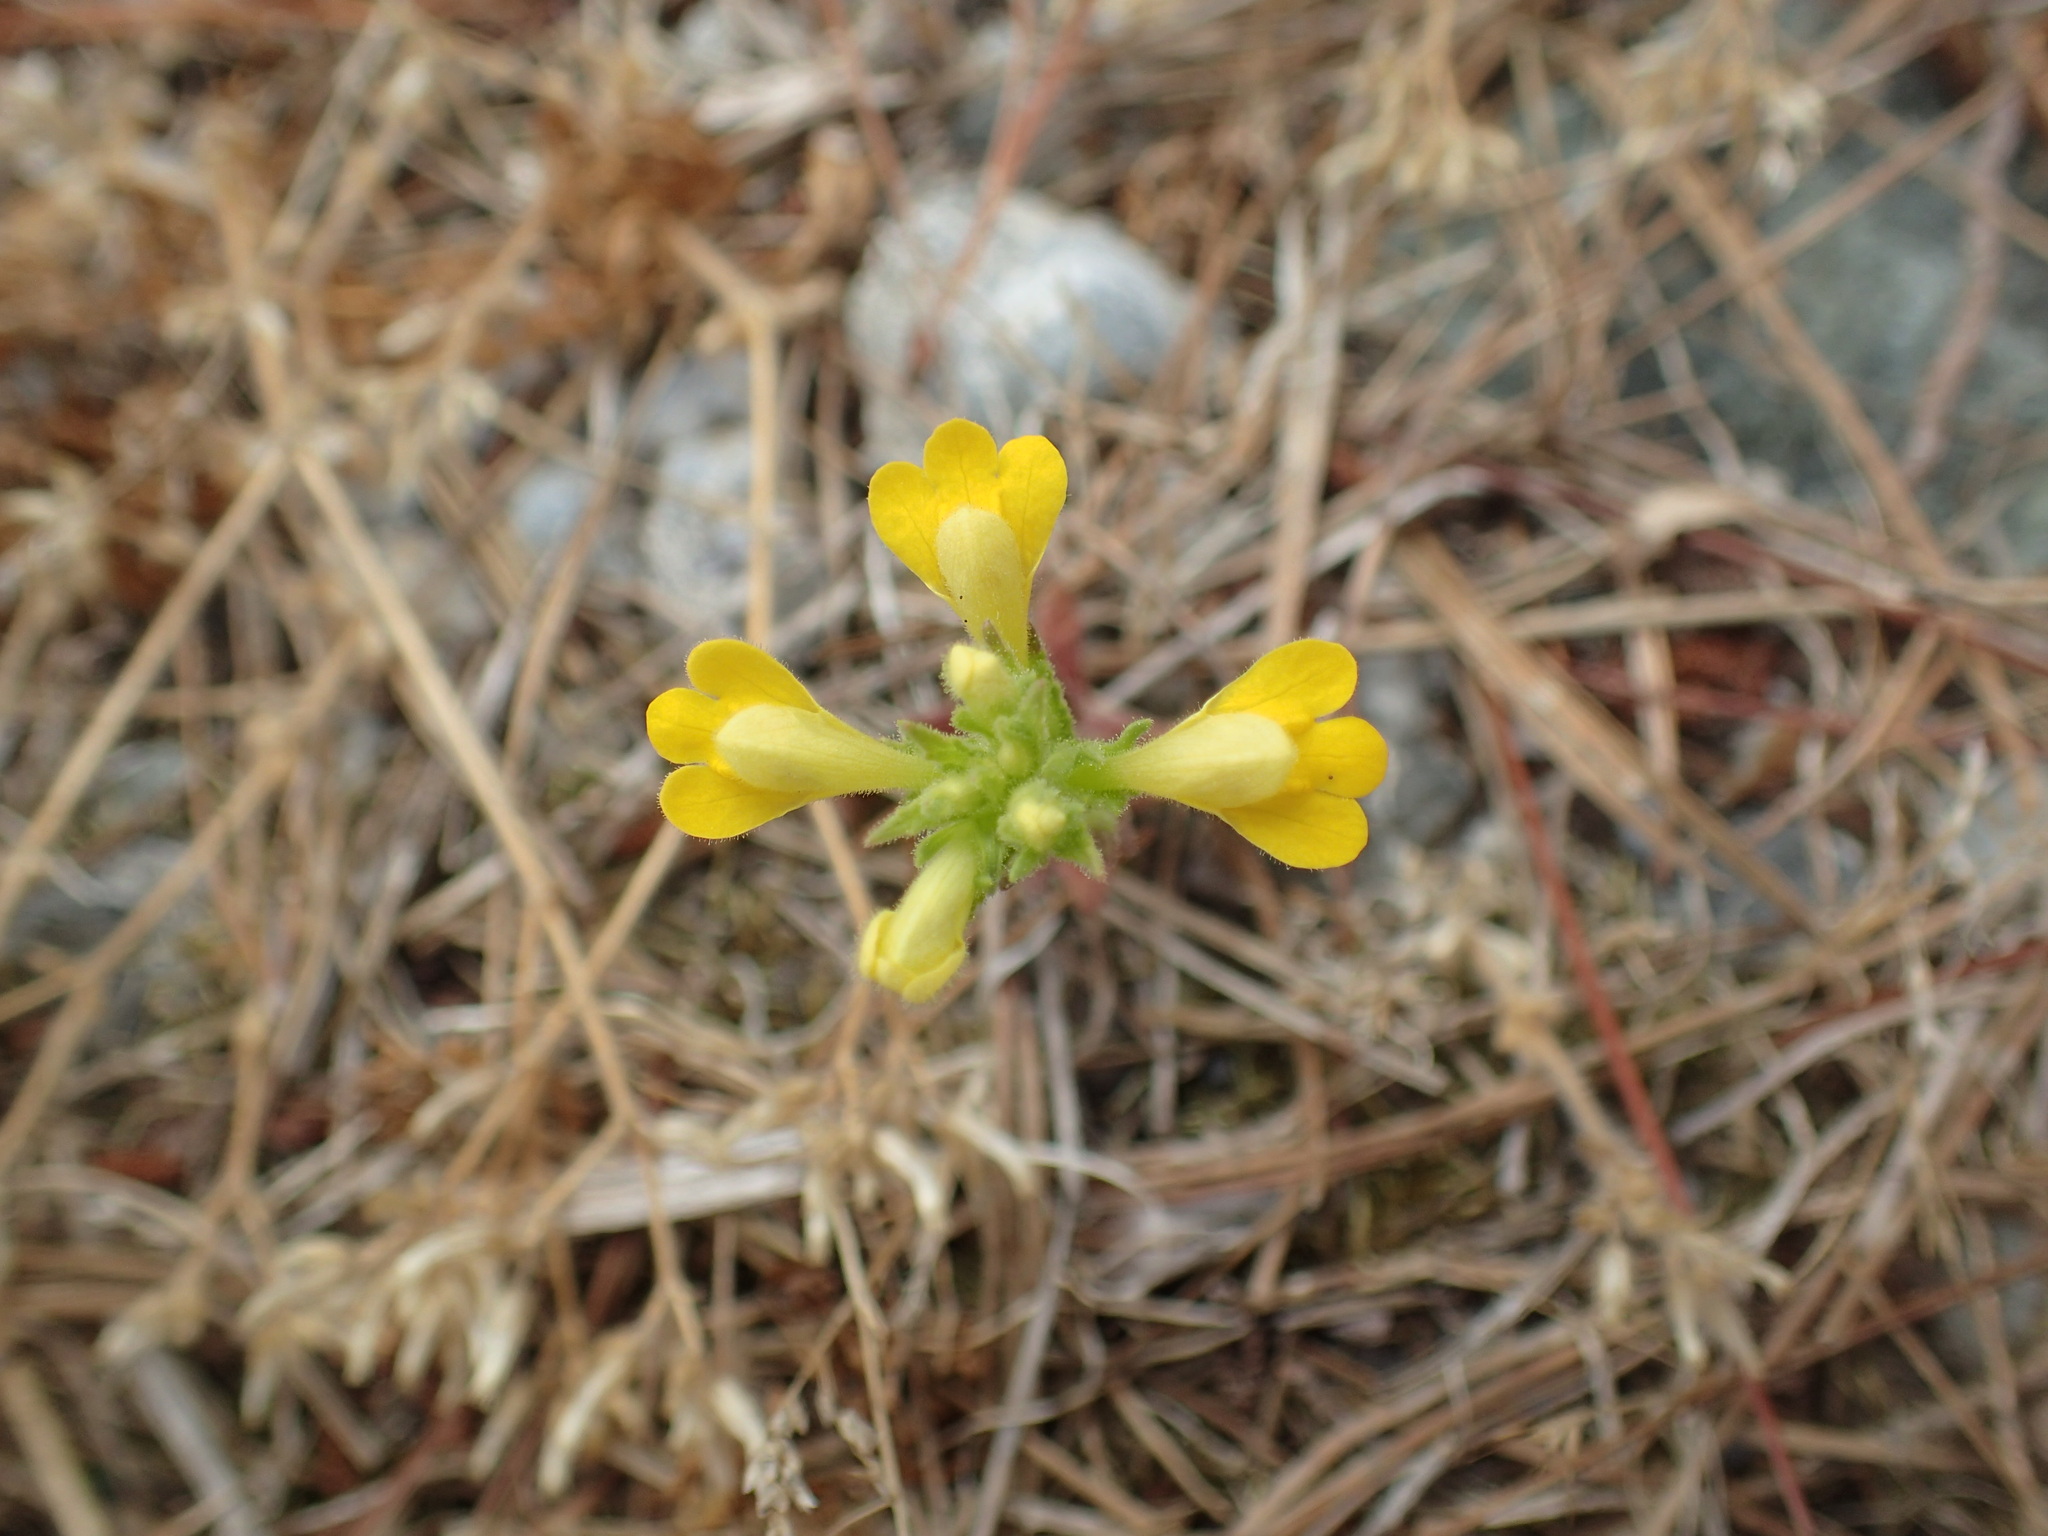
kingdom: Plantae
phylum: Tracheophyta
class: Magnoliopsida
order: Lamiales
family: Orobanchaceae
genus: Bellardia
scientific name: Bellardia viscosa
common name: Sticky parentucellia
